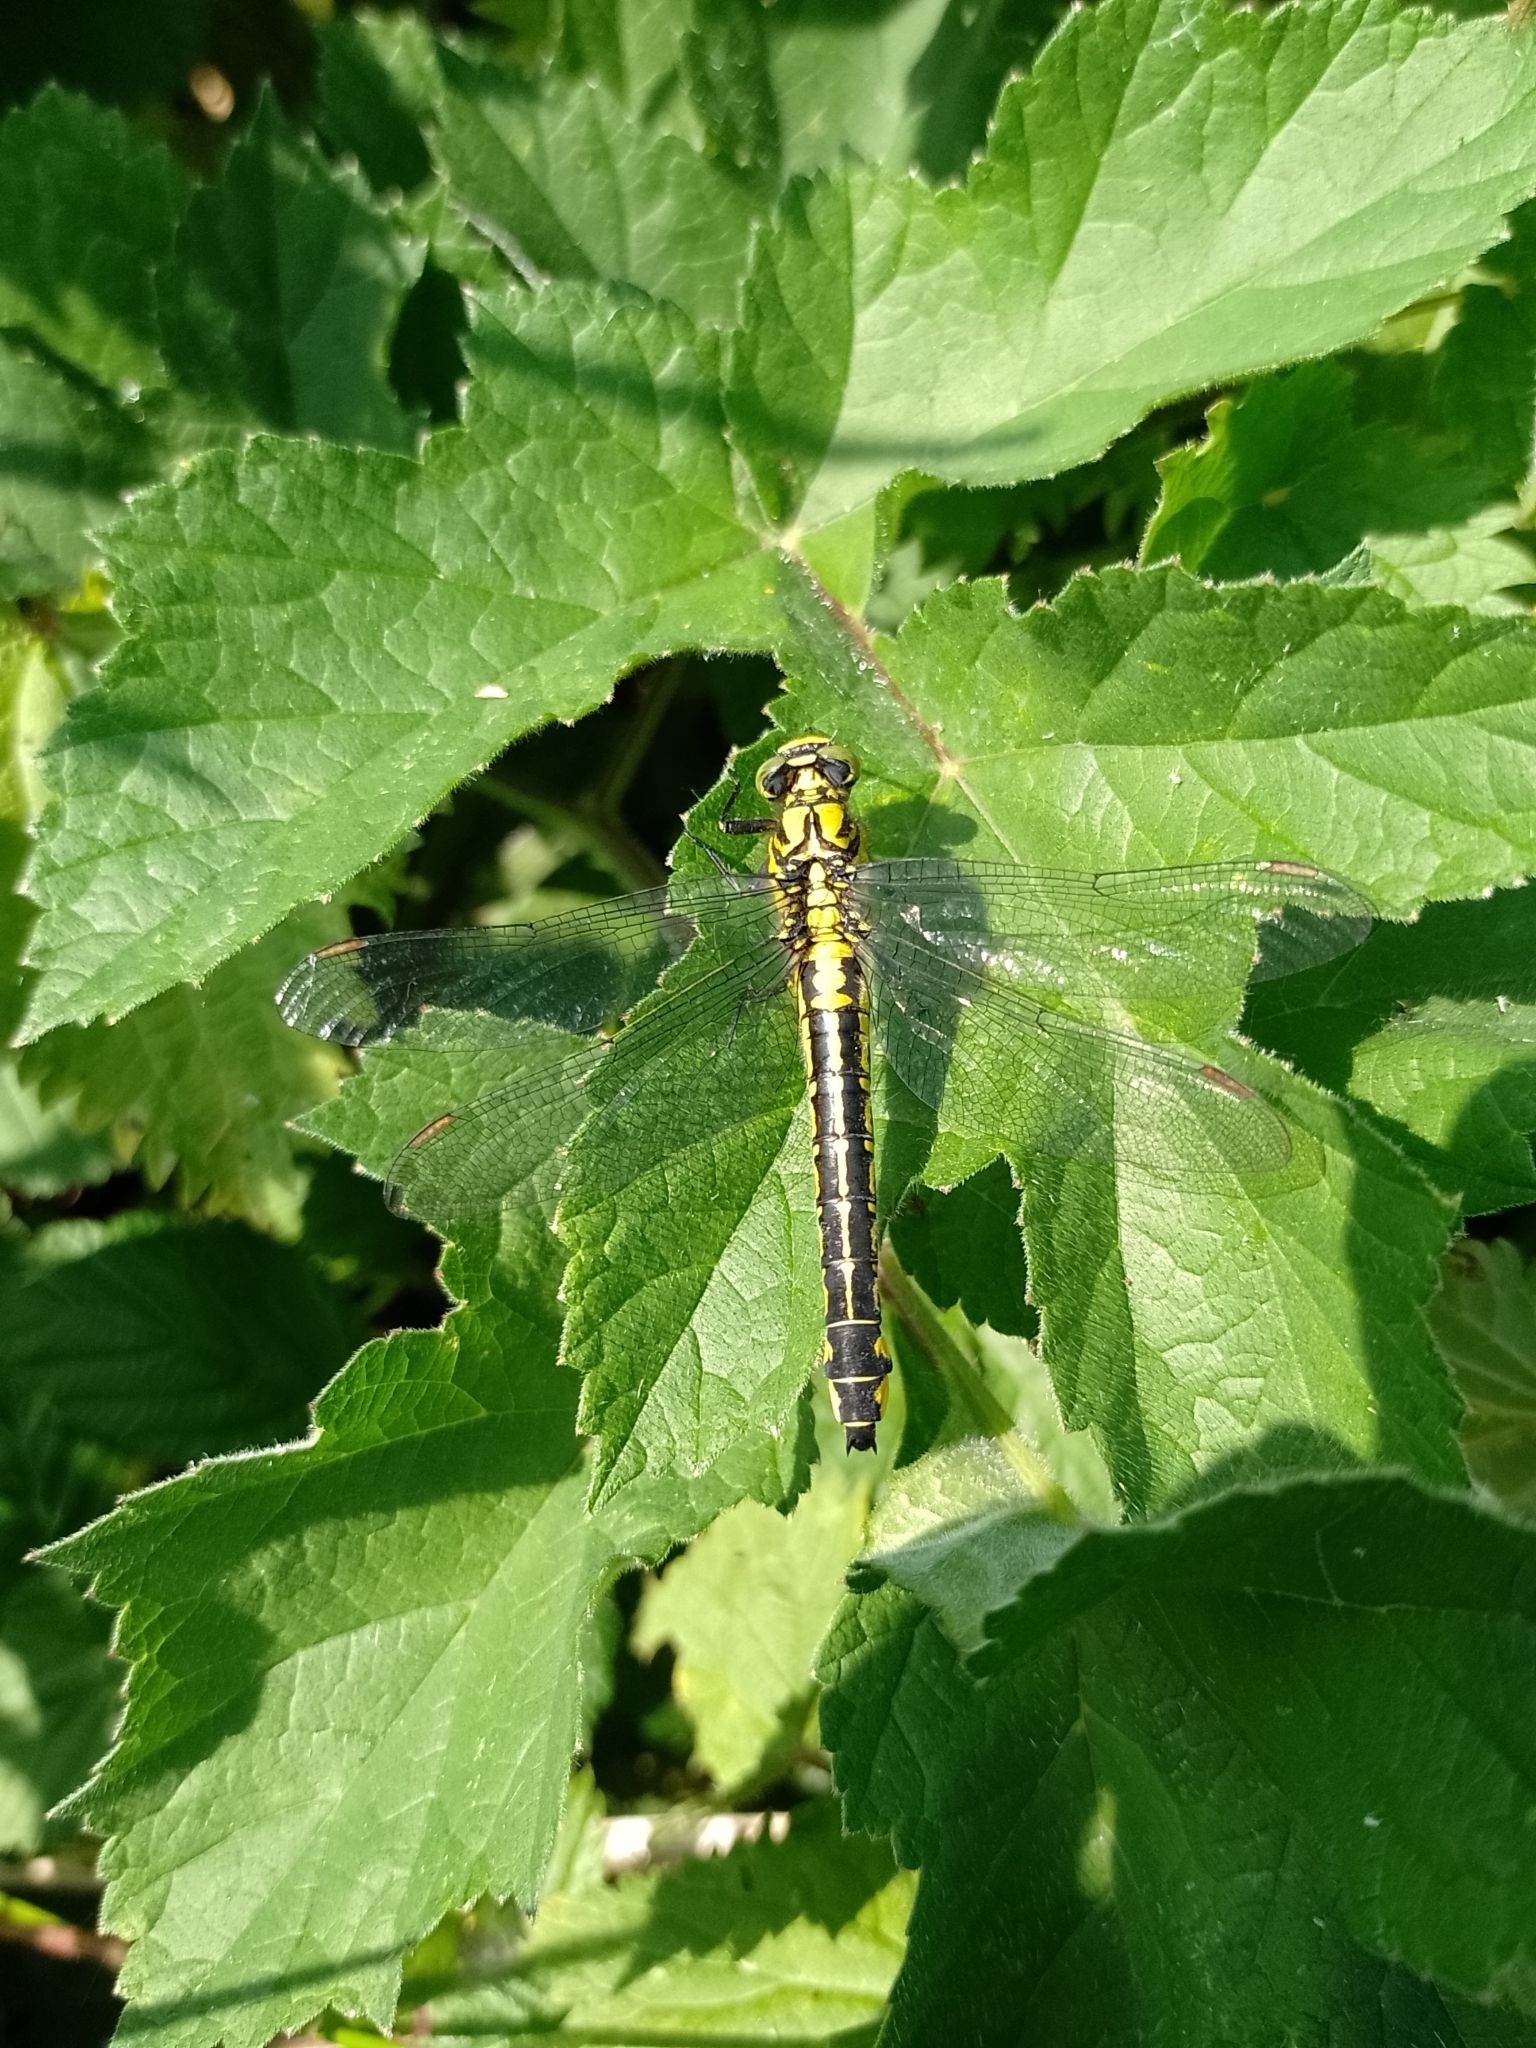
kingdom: Animalia
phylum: Arthropoda
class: Insecta
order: Odonata
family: Gomphidae
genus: Gomphus
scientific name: Gomphus vulgatissimus
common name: Club-tailed dragonfly
